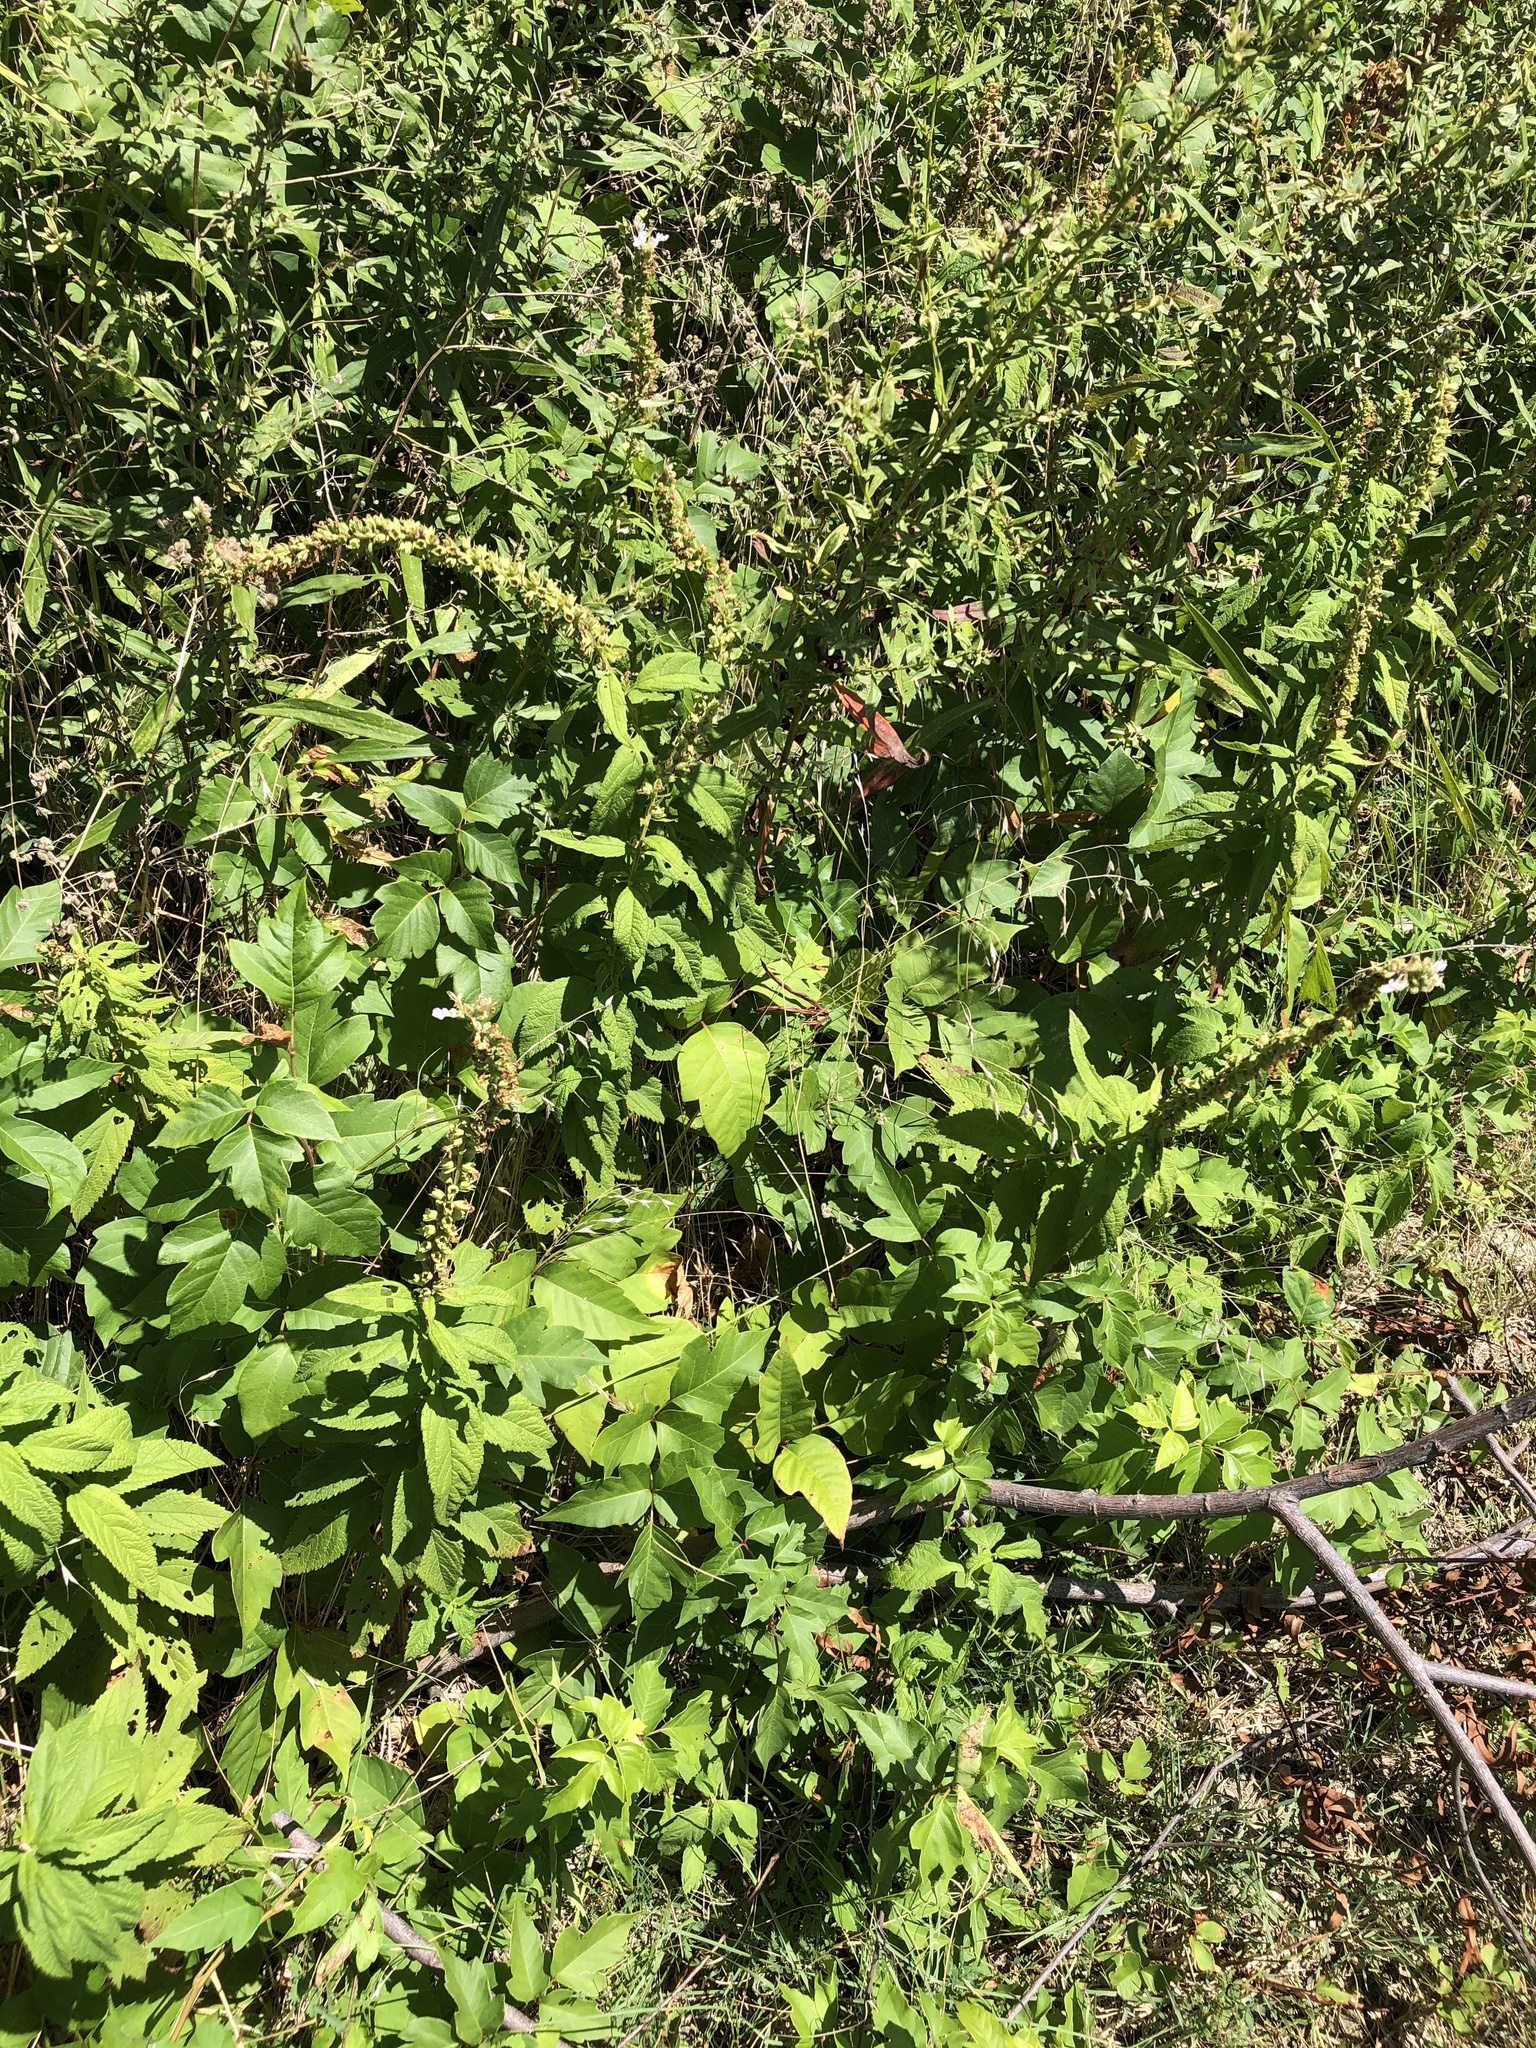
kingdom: Plantae
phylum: Tracheophyta
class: Magnoliopsida
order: Lamiales
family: Lamiaceae
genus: Teucrium
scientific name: Teucrium canadense
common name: American germander
